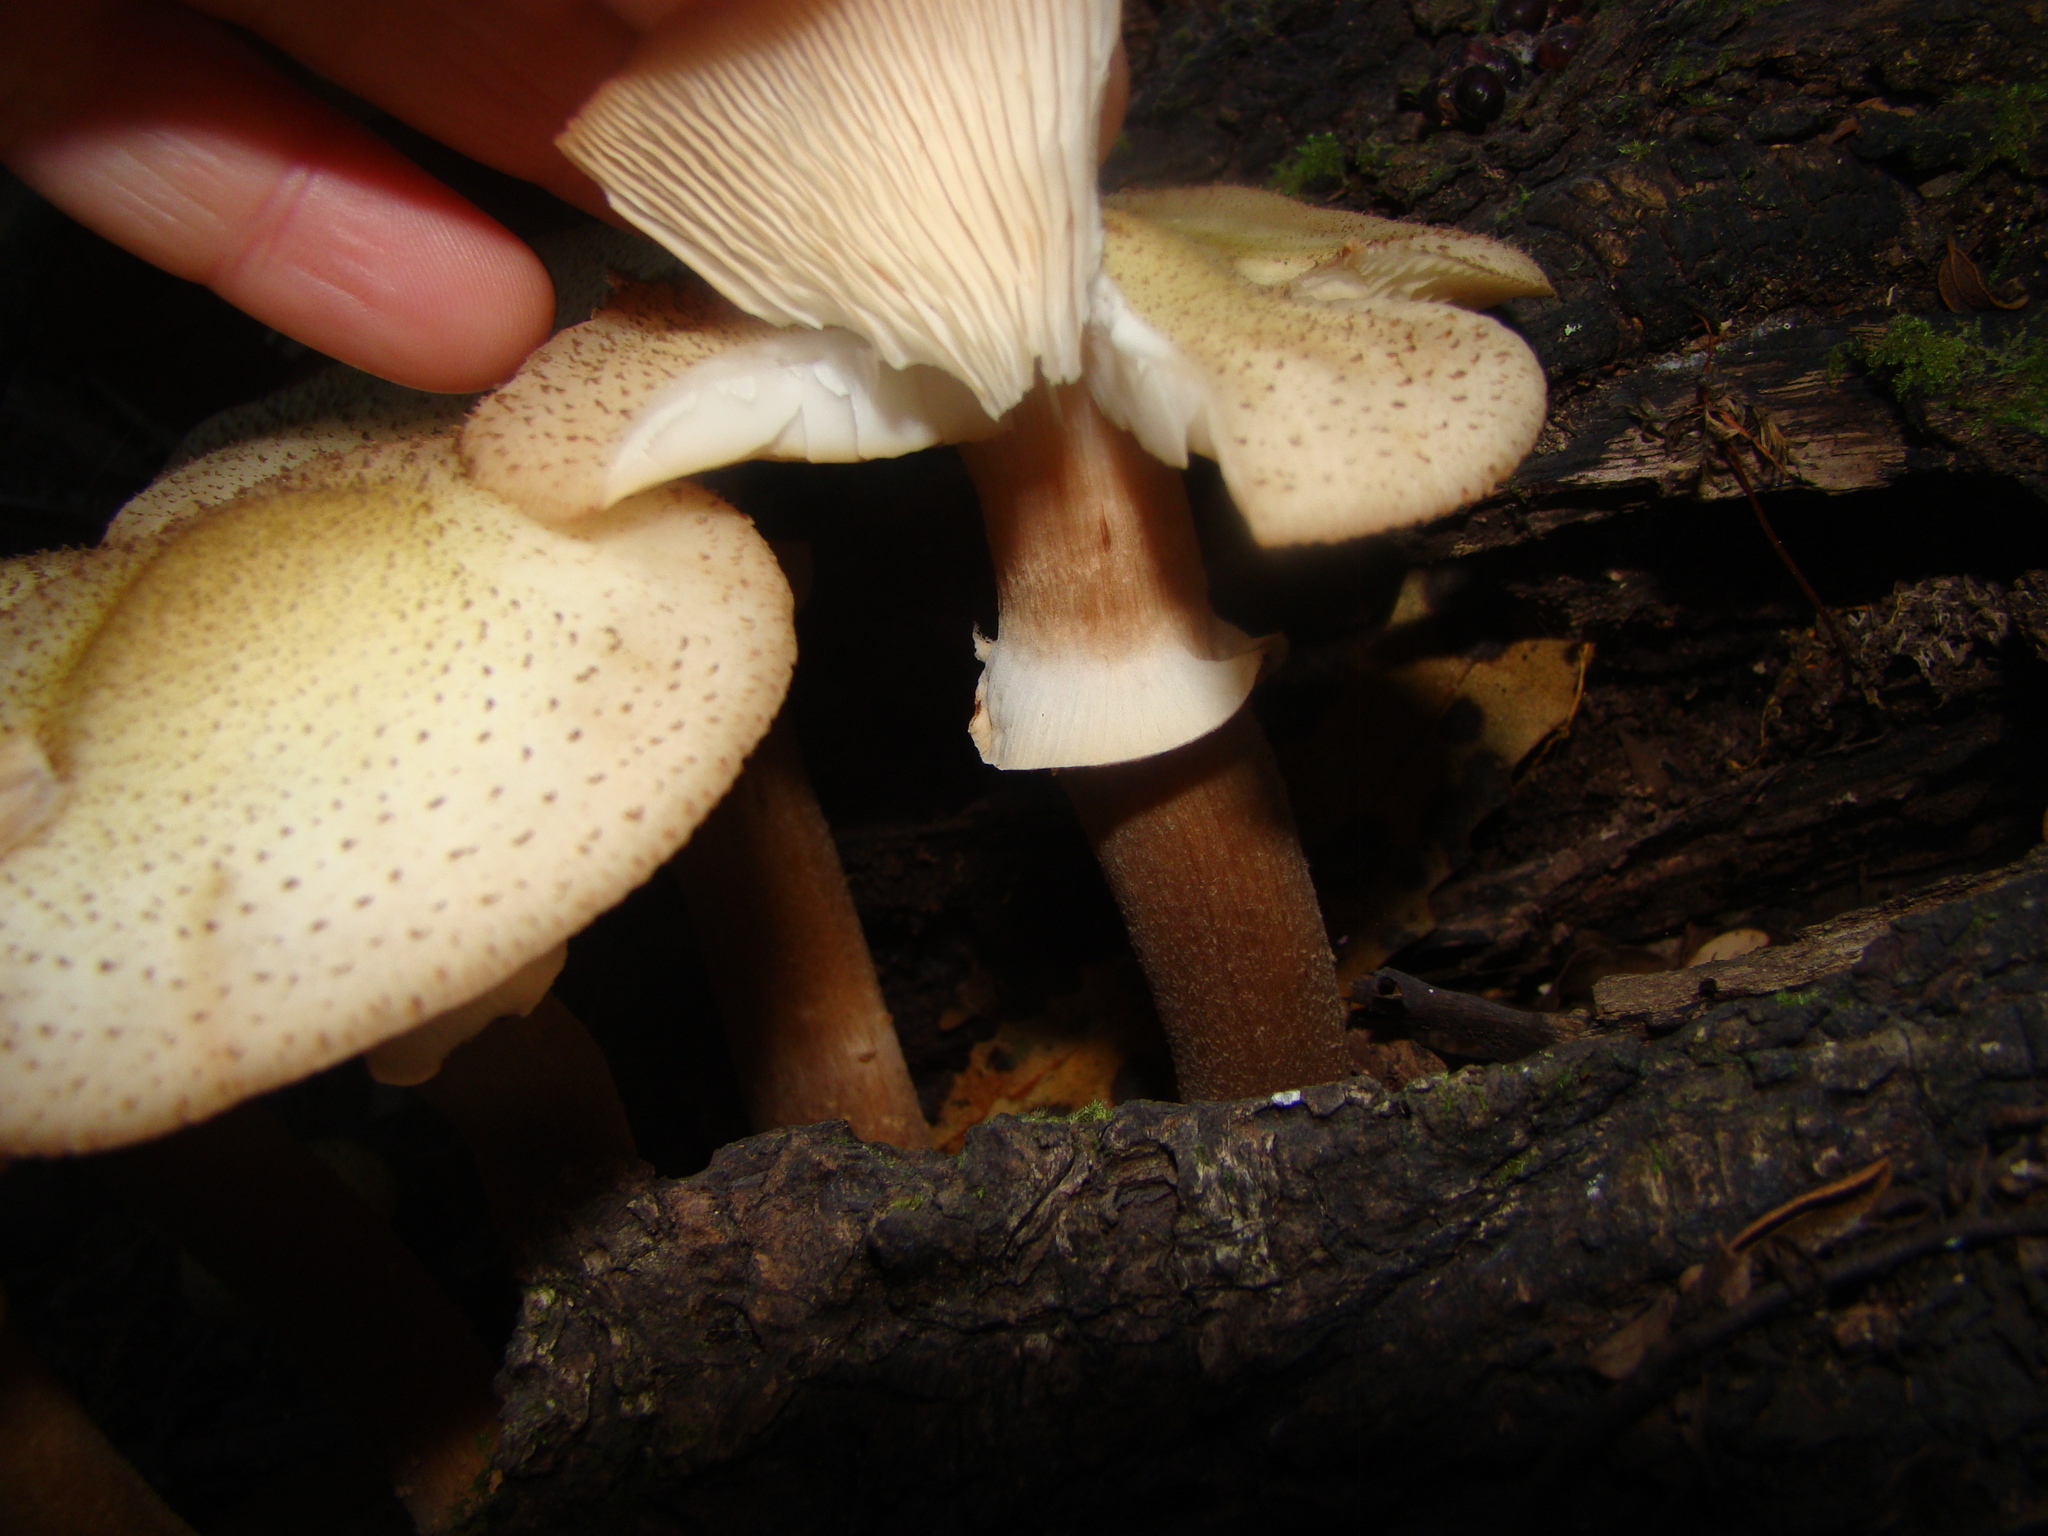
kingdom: Fungi
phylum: Basidiomycota
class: Agaricomycetes
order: Agaricales
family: Physalacriaceae
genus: Armillaria
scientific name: Armillaria limonea
